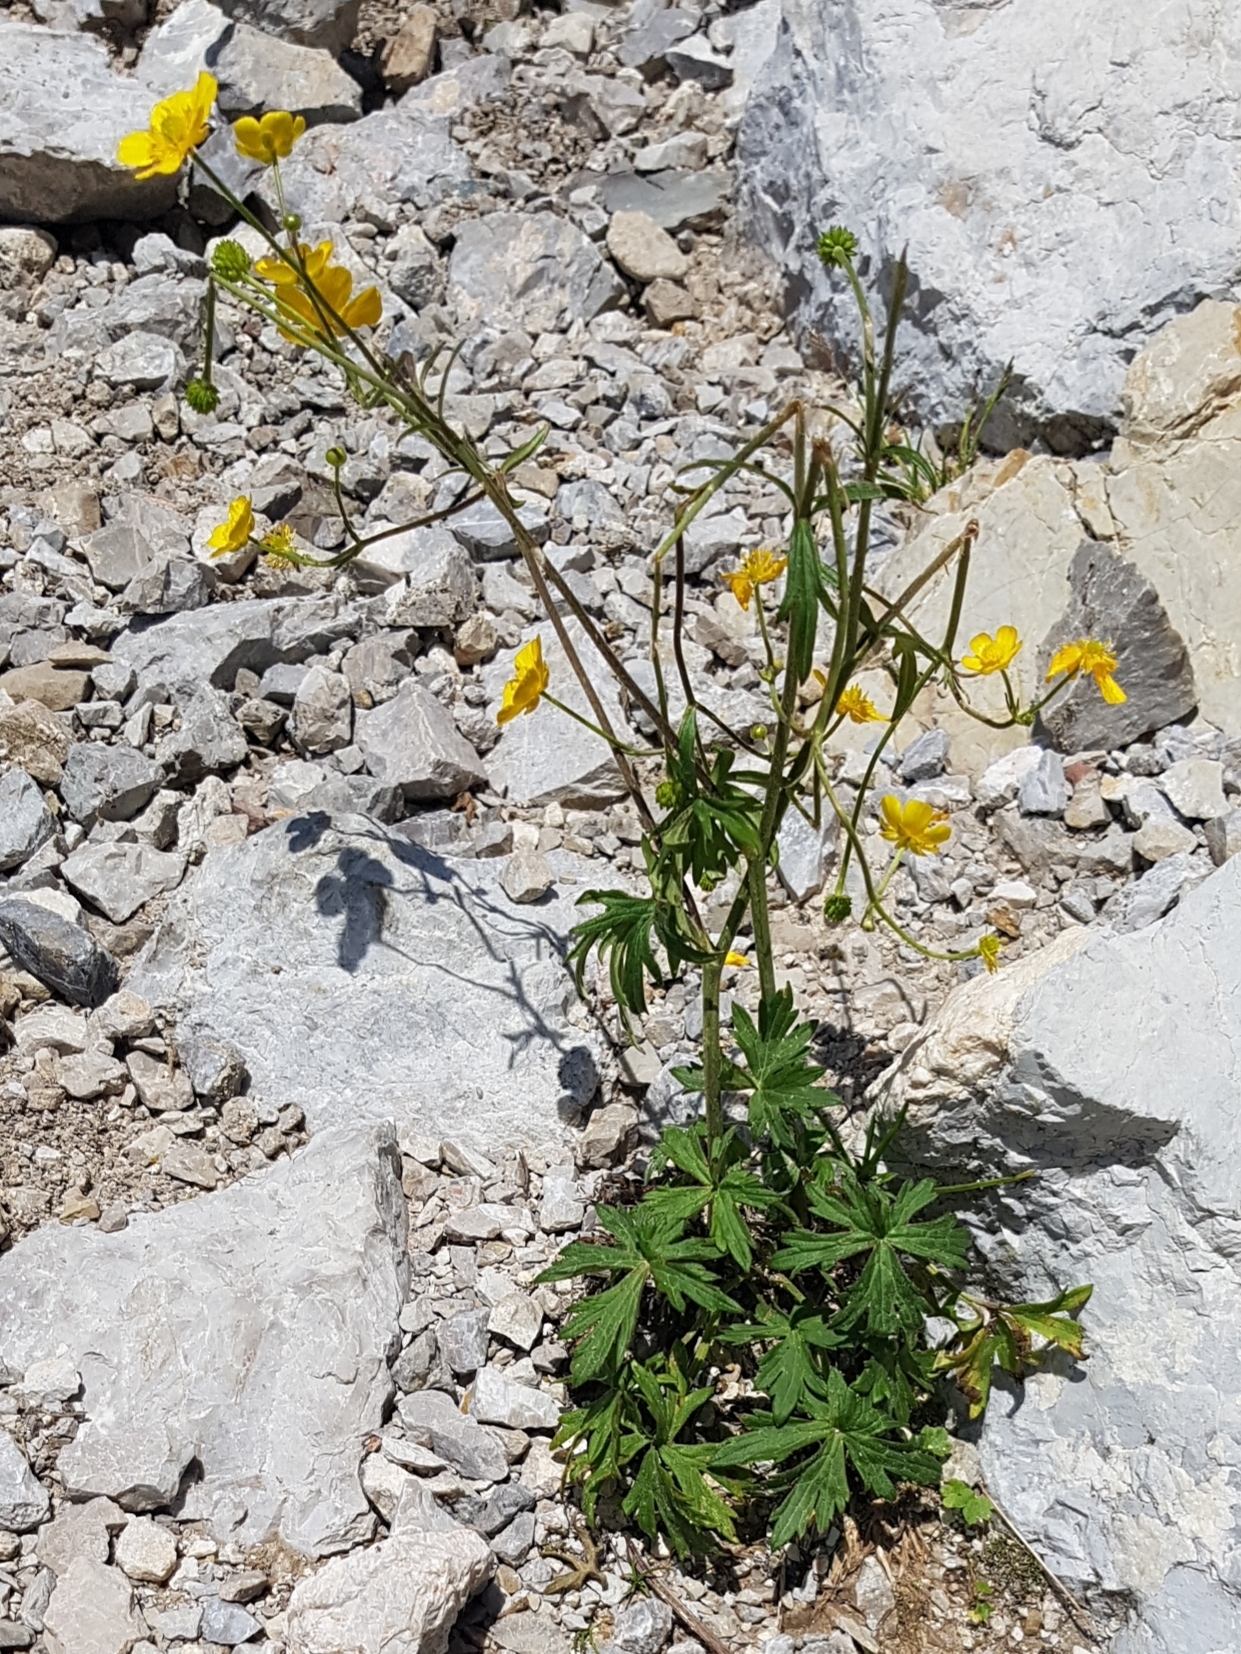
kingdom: Plantae
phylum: Tracheophyta
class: Magnoliopsida
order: Ranunculales
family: Ranunculaceae
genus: Ranunculus
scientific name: Ranunculus montanus
